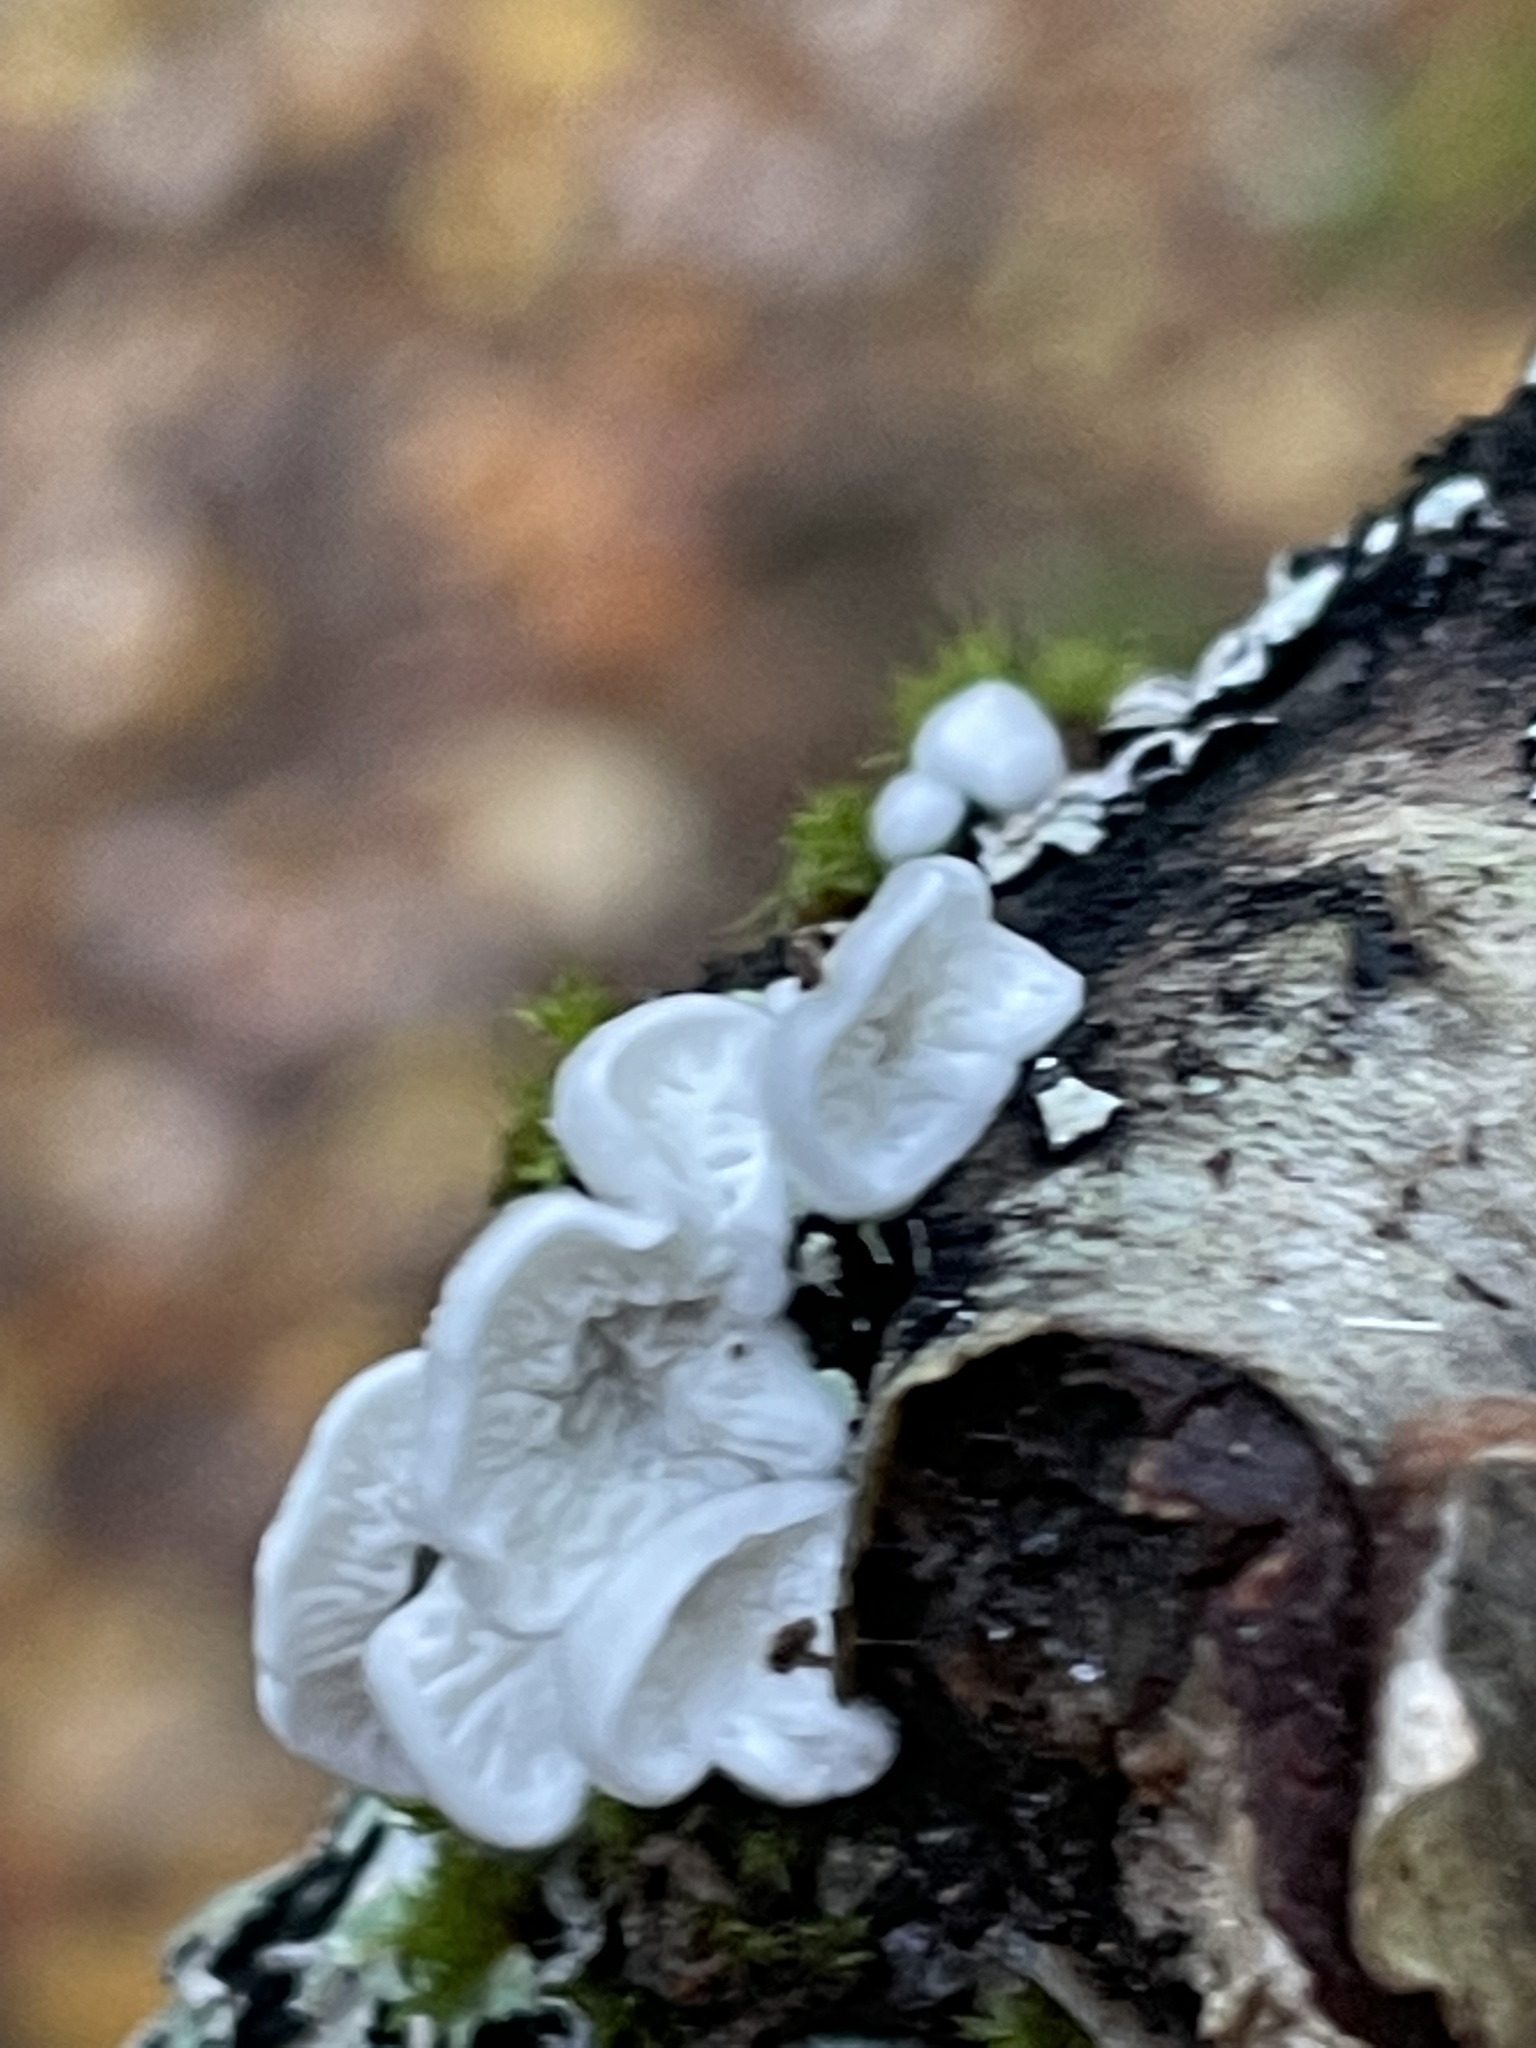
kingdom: Fungi
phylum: Basidiomycota
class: Agaricomycetes
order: Amylocorticiales
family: Amylocorticiaceae
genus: Plicaturopsis
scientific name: Plicaturopsis crispa
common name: Crimped gill
